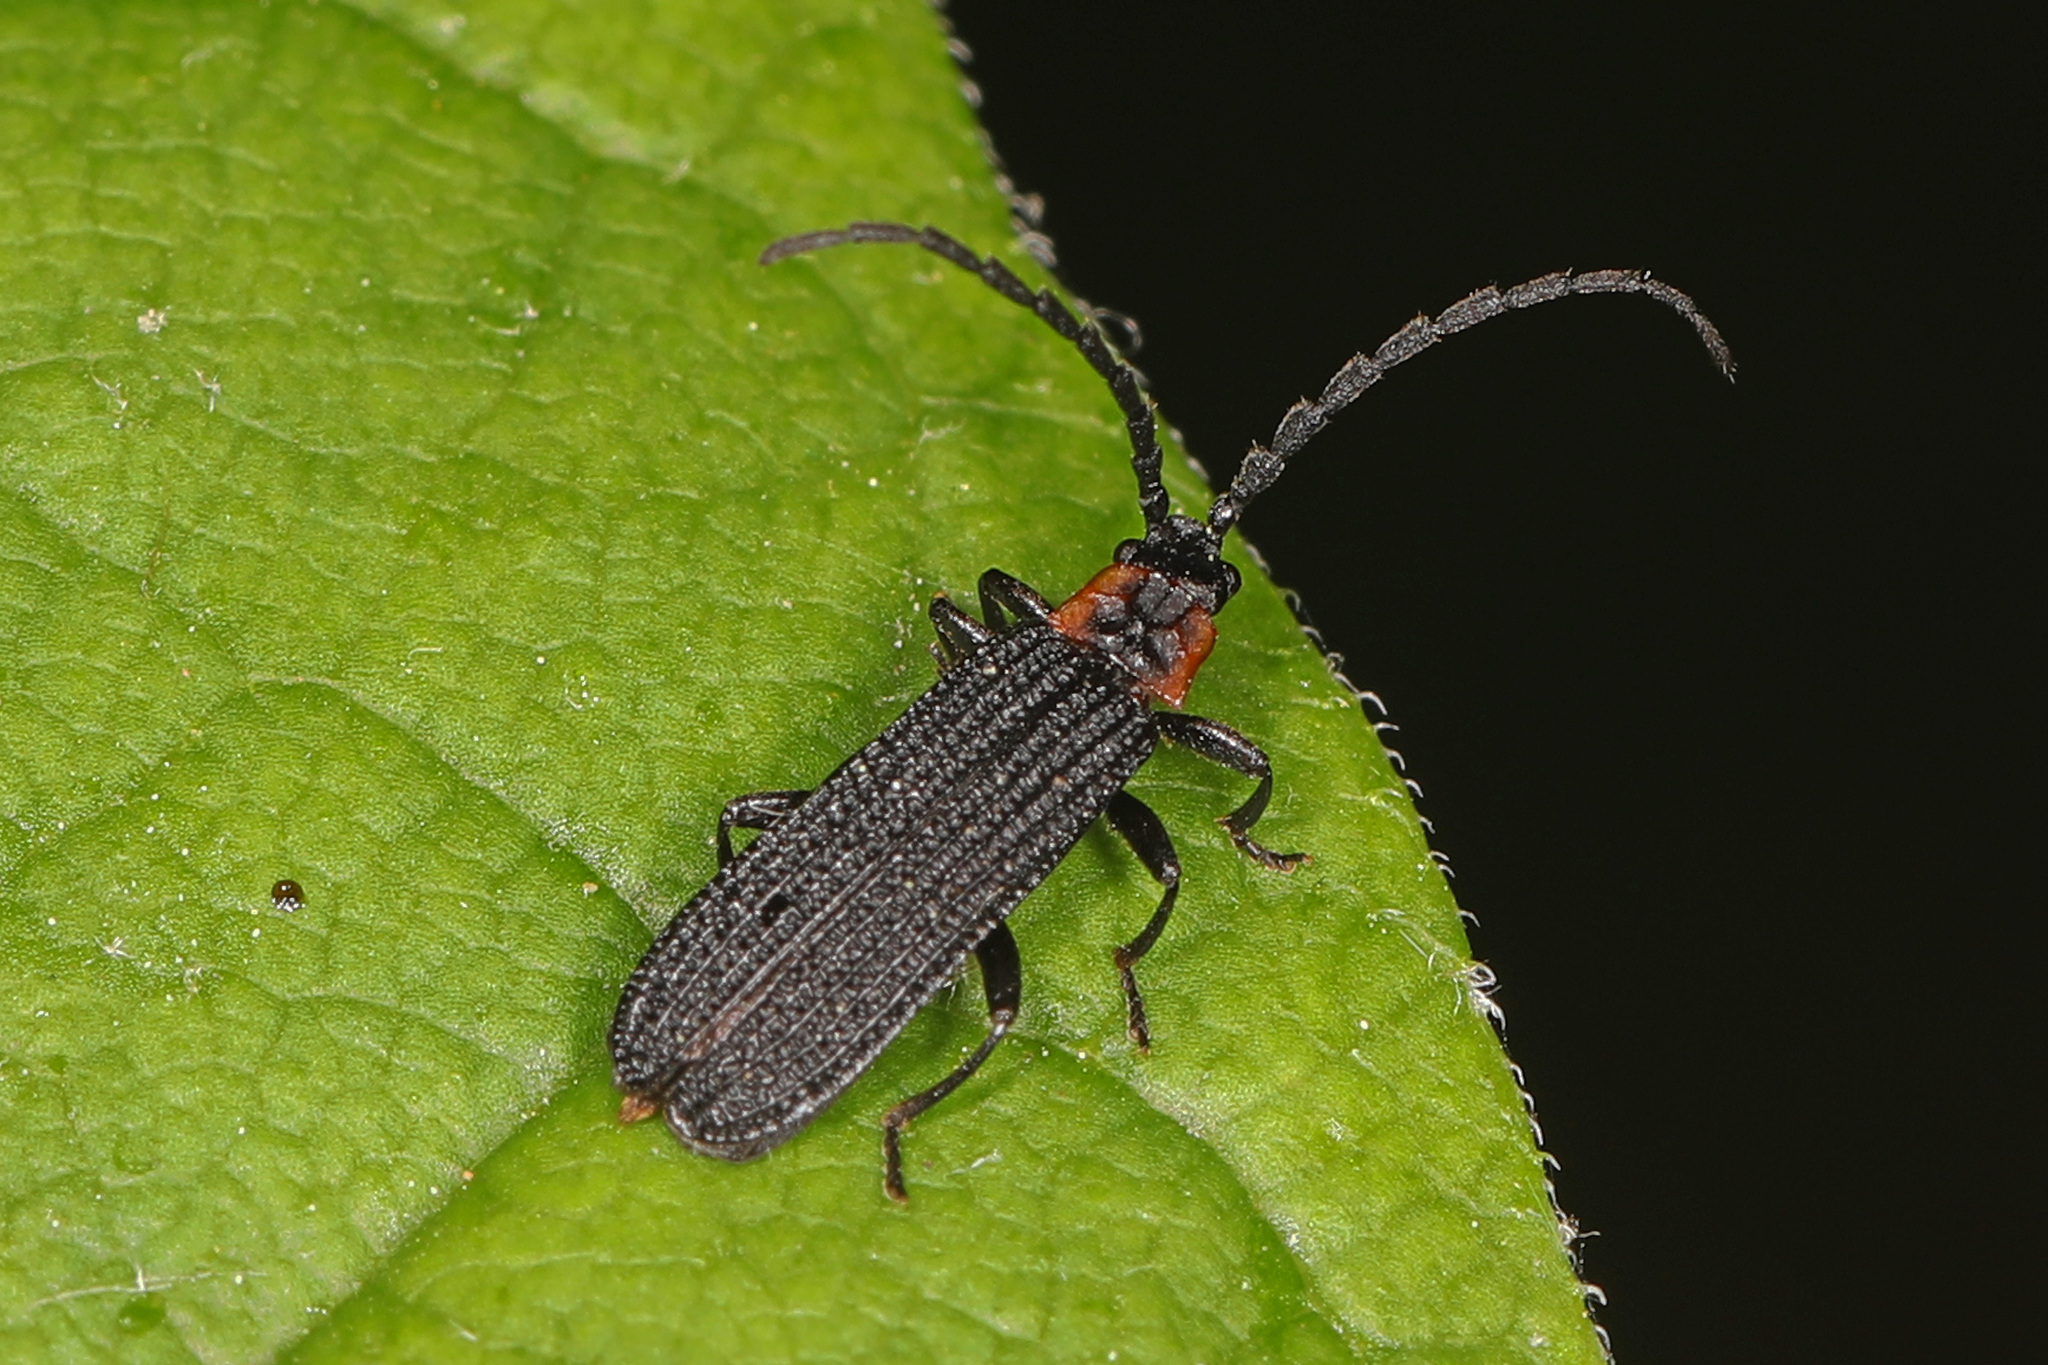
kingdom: Animalia
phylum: Arthropoda
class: Insecta
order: Coleoptera
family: Lycidae
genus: Erotides
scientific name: Erotides sculptilis
